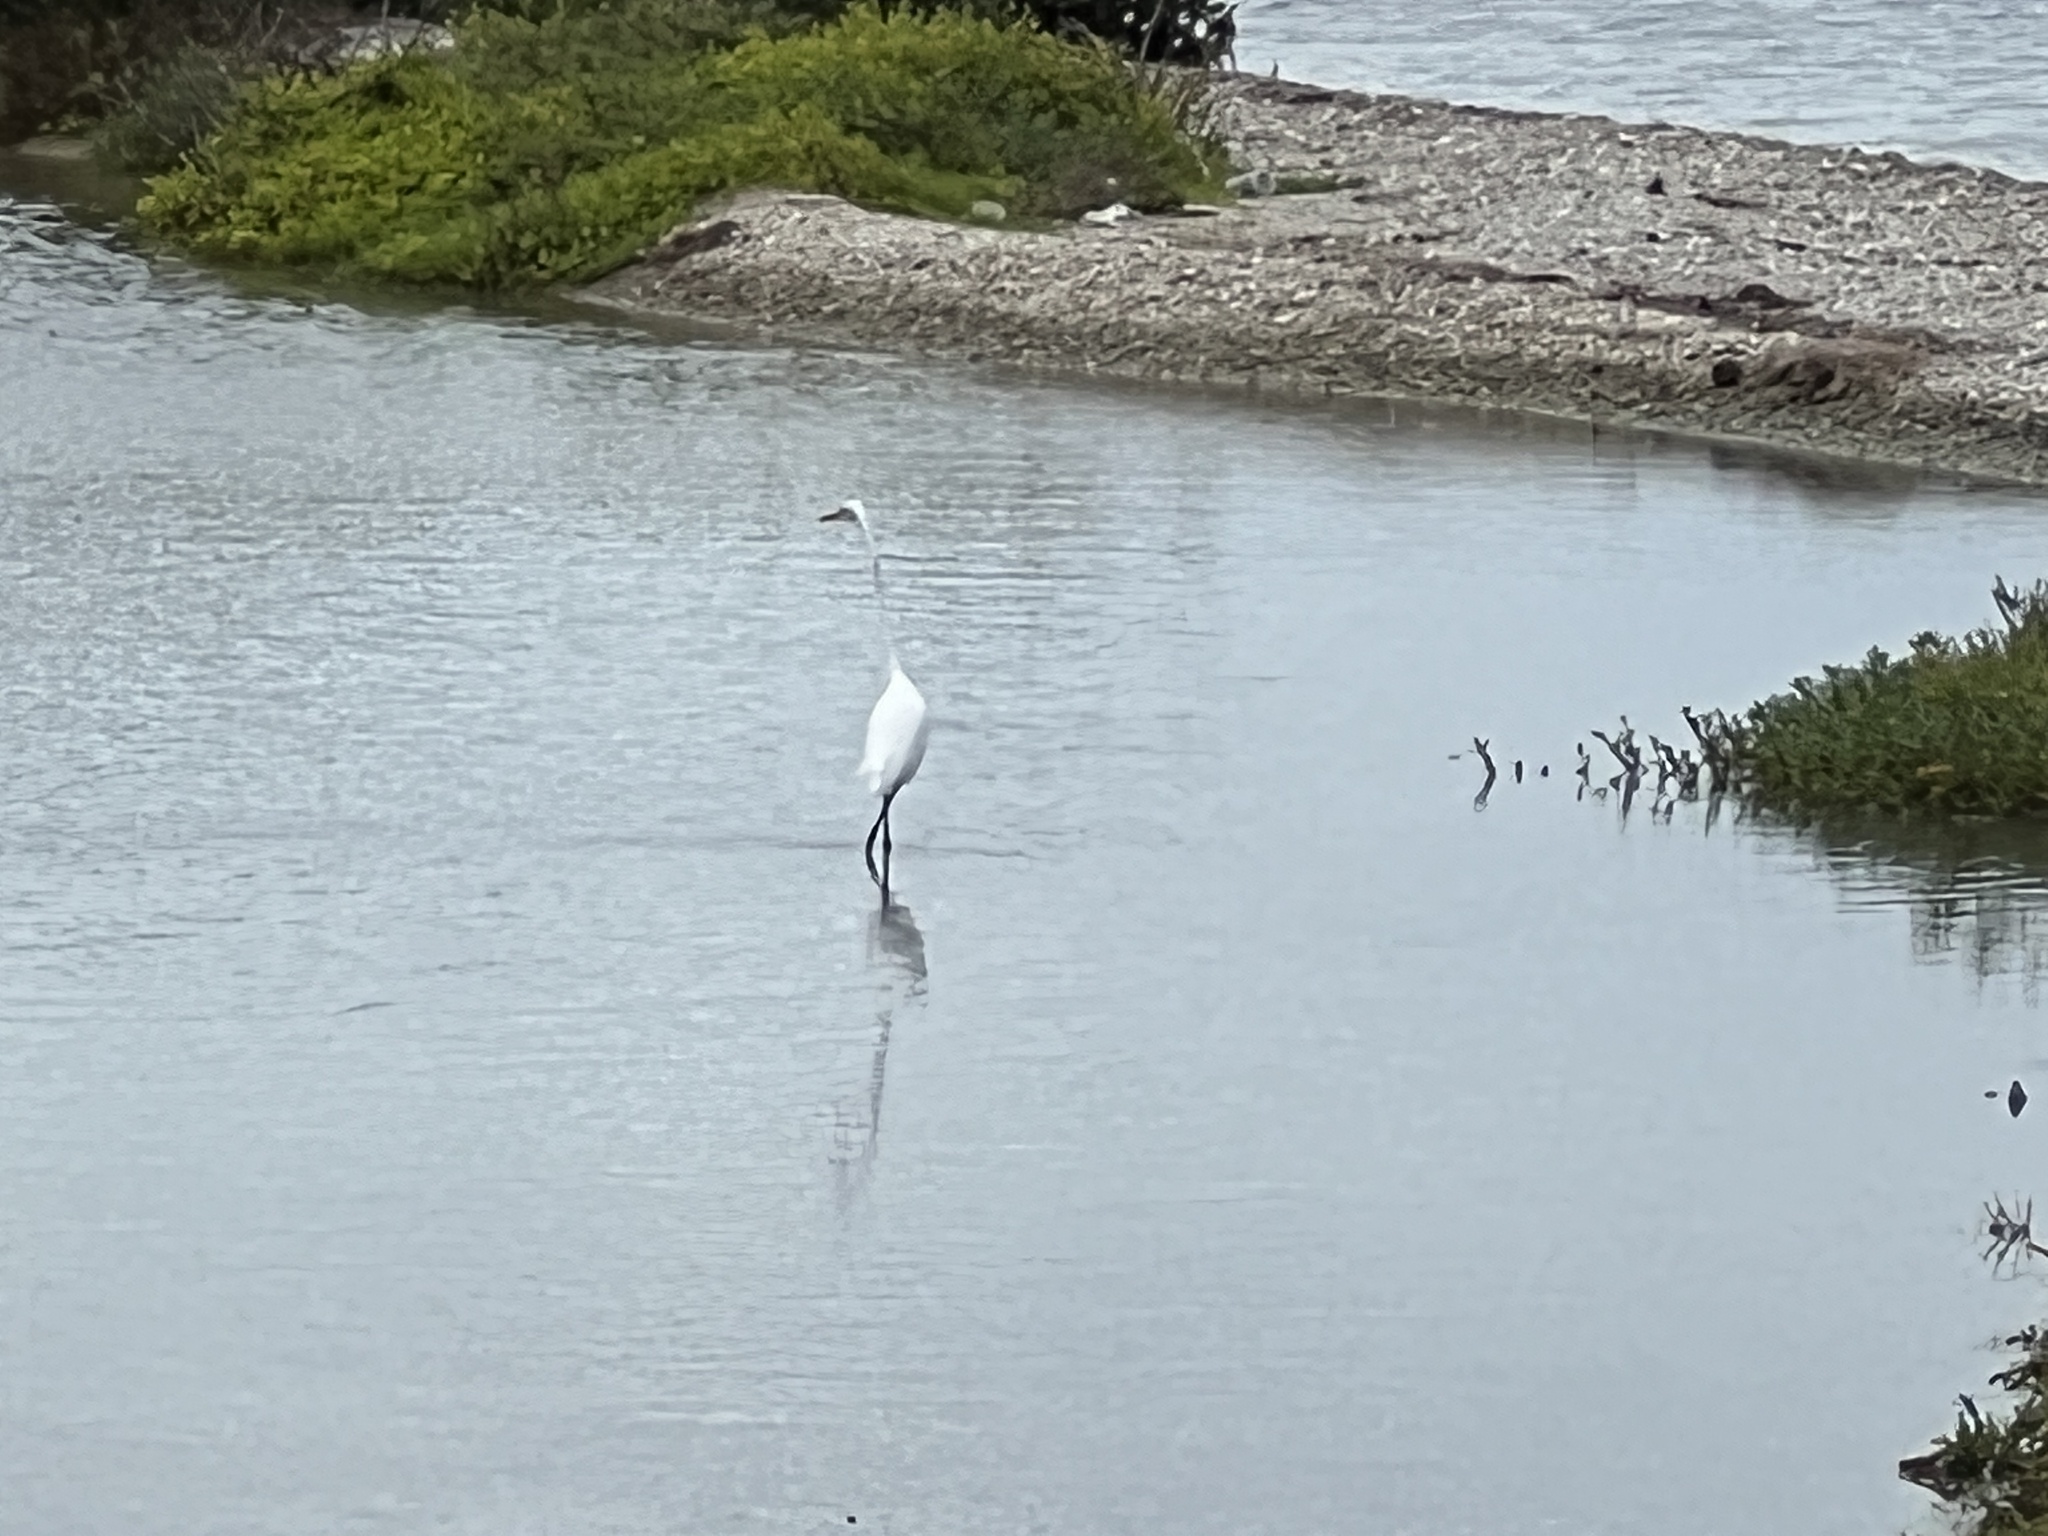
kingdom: Animalia
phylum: Chordata
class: Aves
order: Pelecaniformes
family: Ardeidae
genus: Ardea
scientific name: Ardea alba
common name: Great egret
